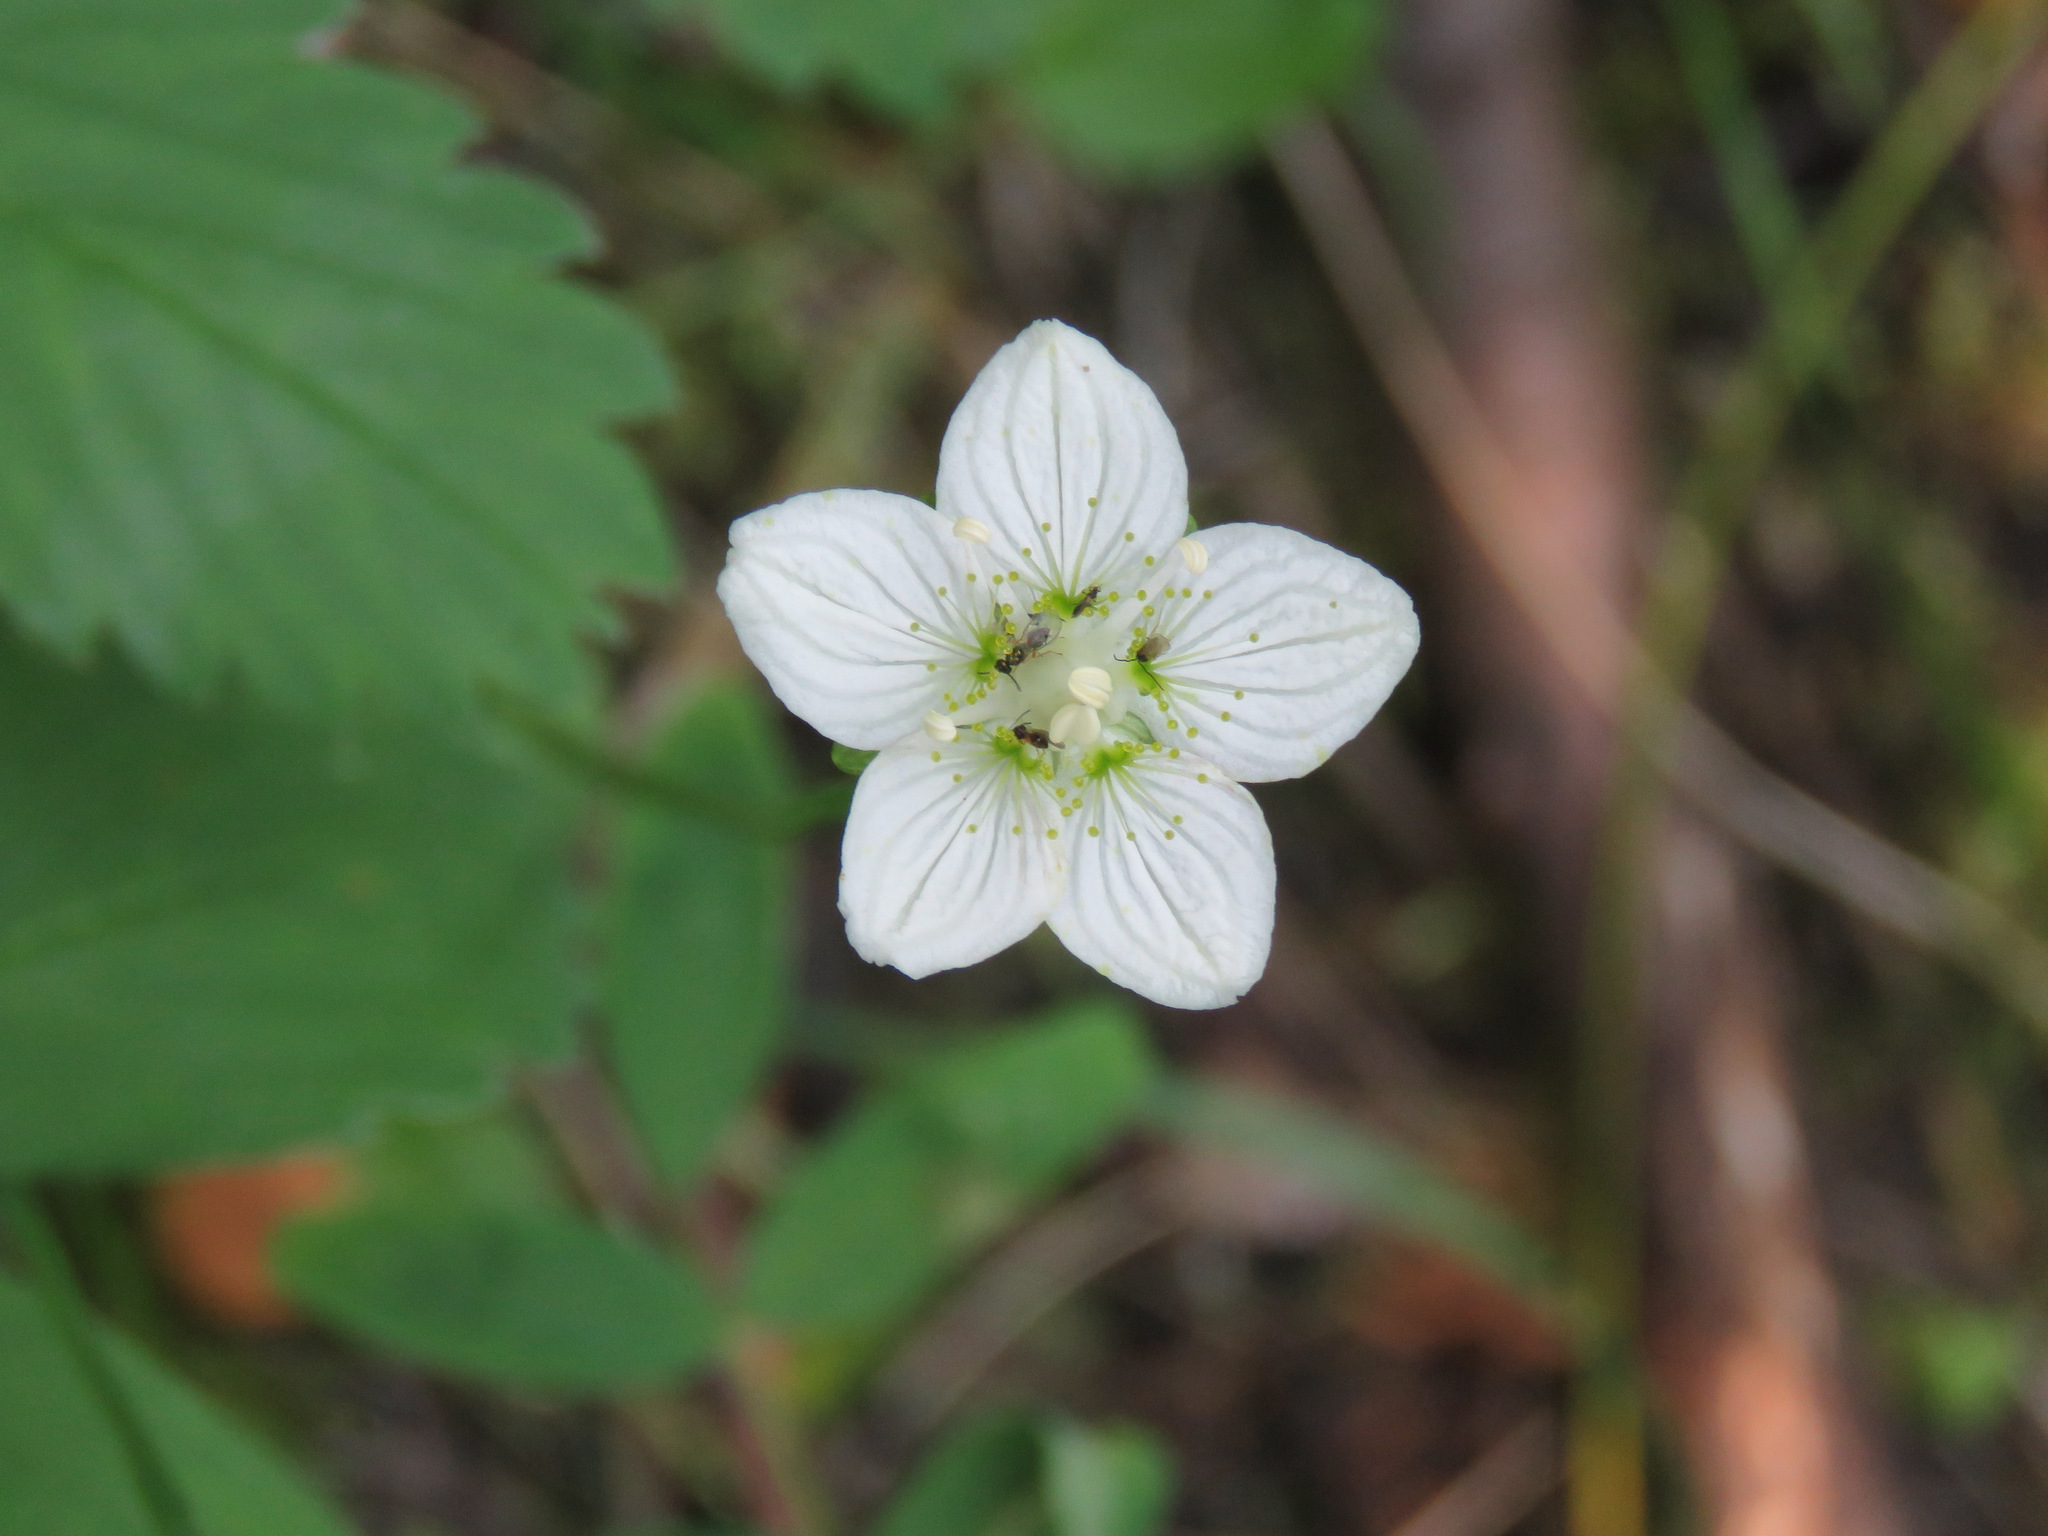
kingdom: Plantae
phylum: Tracheophyta
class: Magnoliopsida
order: Celastrales
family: Parnassiaceae
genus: Parnassia
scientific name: Parnassia palustris
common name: Grass-of-parnassus
